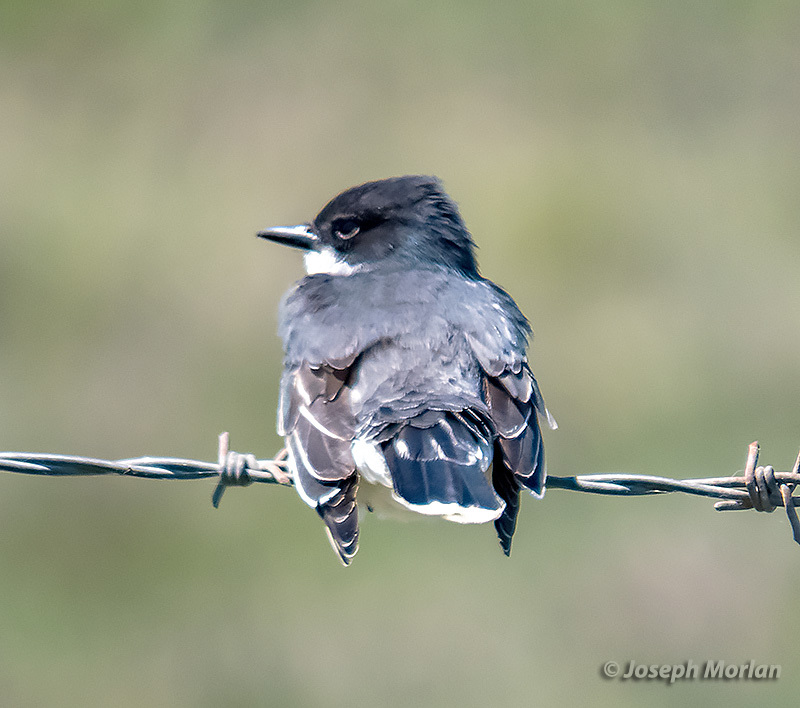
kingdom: Animalia
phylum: Chordata
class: Aves
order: Passeriformes
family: Tyrannidae
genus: Tyrannus
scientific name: Tyrannus tyrannus
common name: Eastern kingbird
